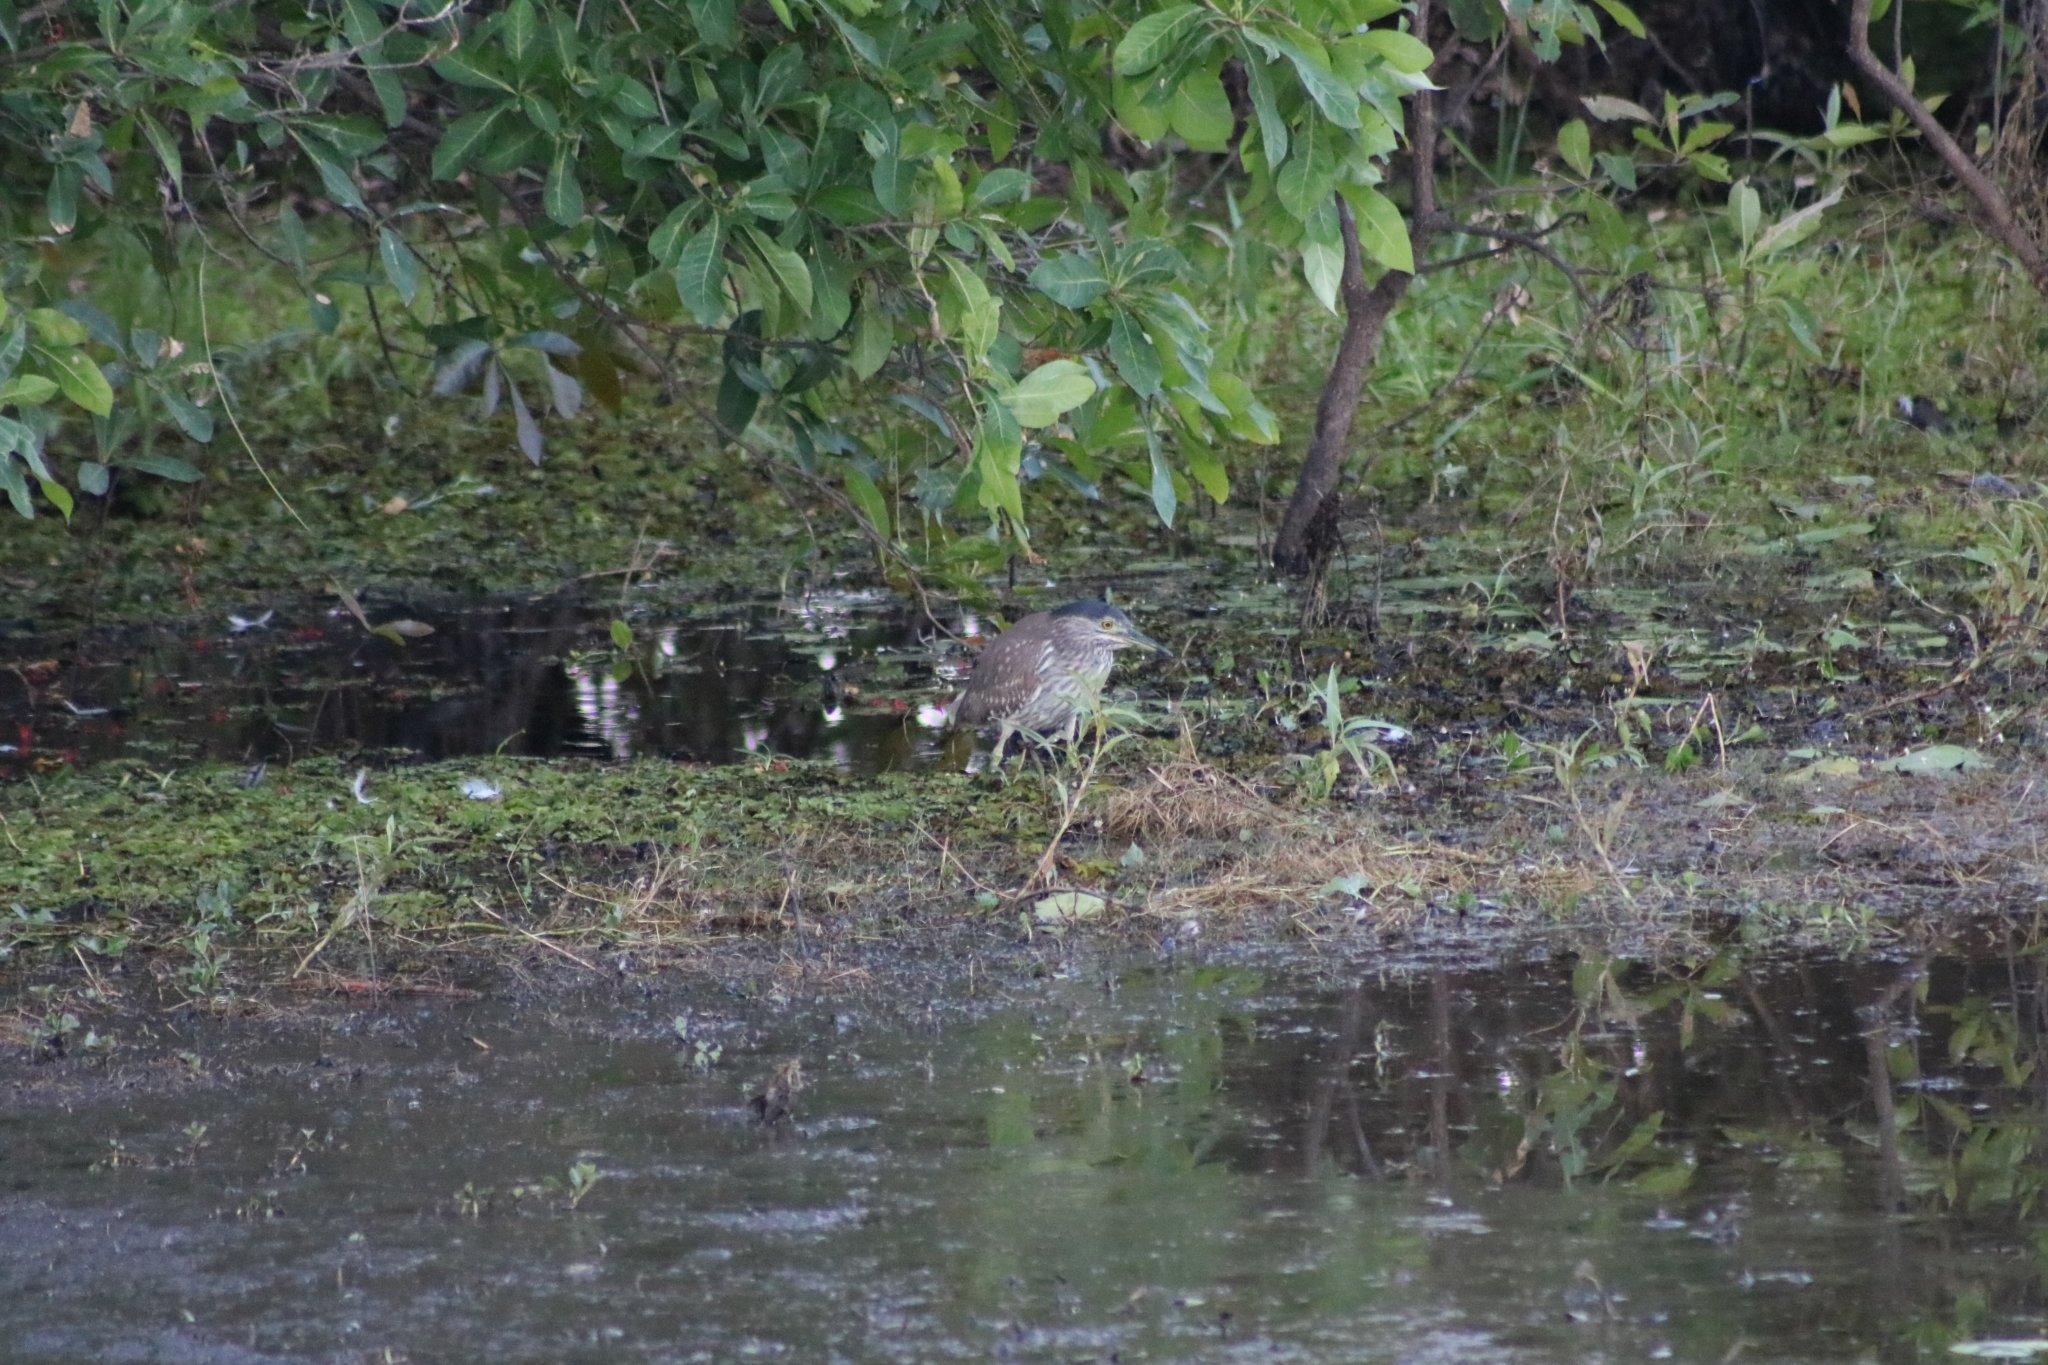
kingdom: Animalia
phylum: Chordata
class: Aves
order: Pelecaniformes
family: Ardeidae
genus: Nycticorax
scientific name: Nycticorax caledonicus
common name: Rufous night-heron
